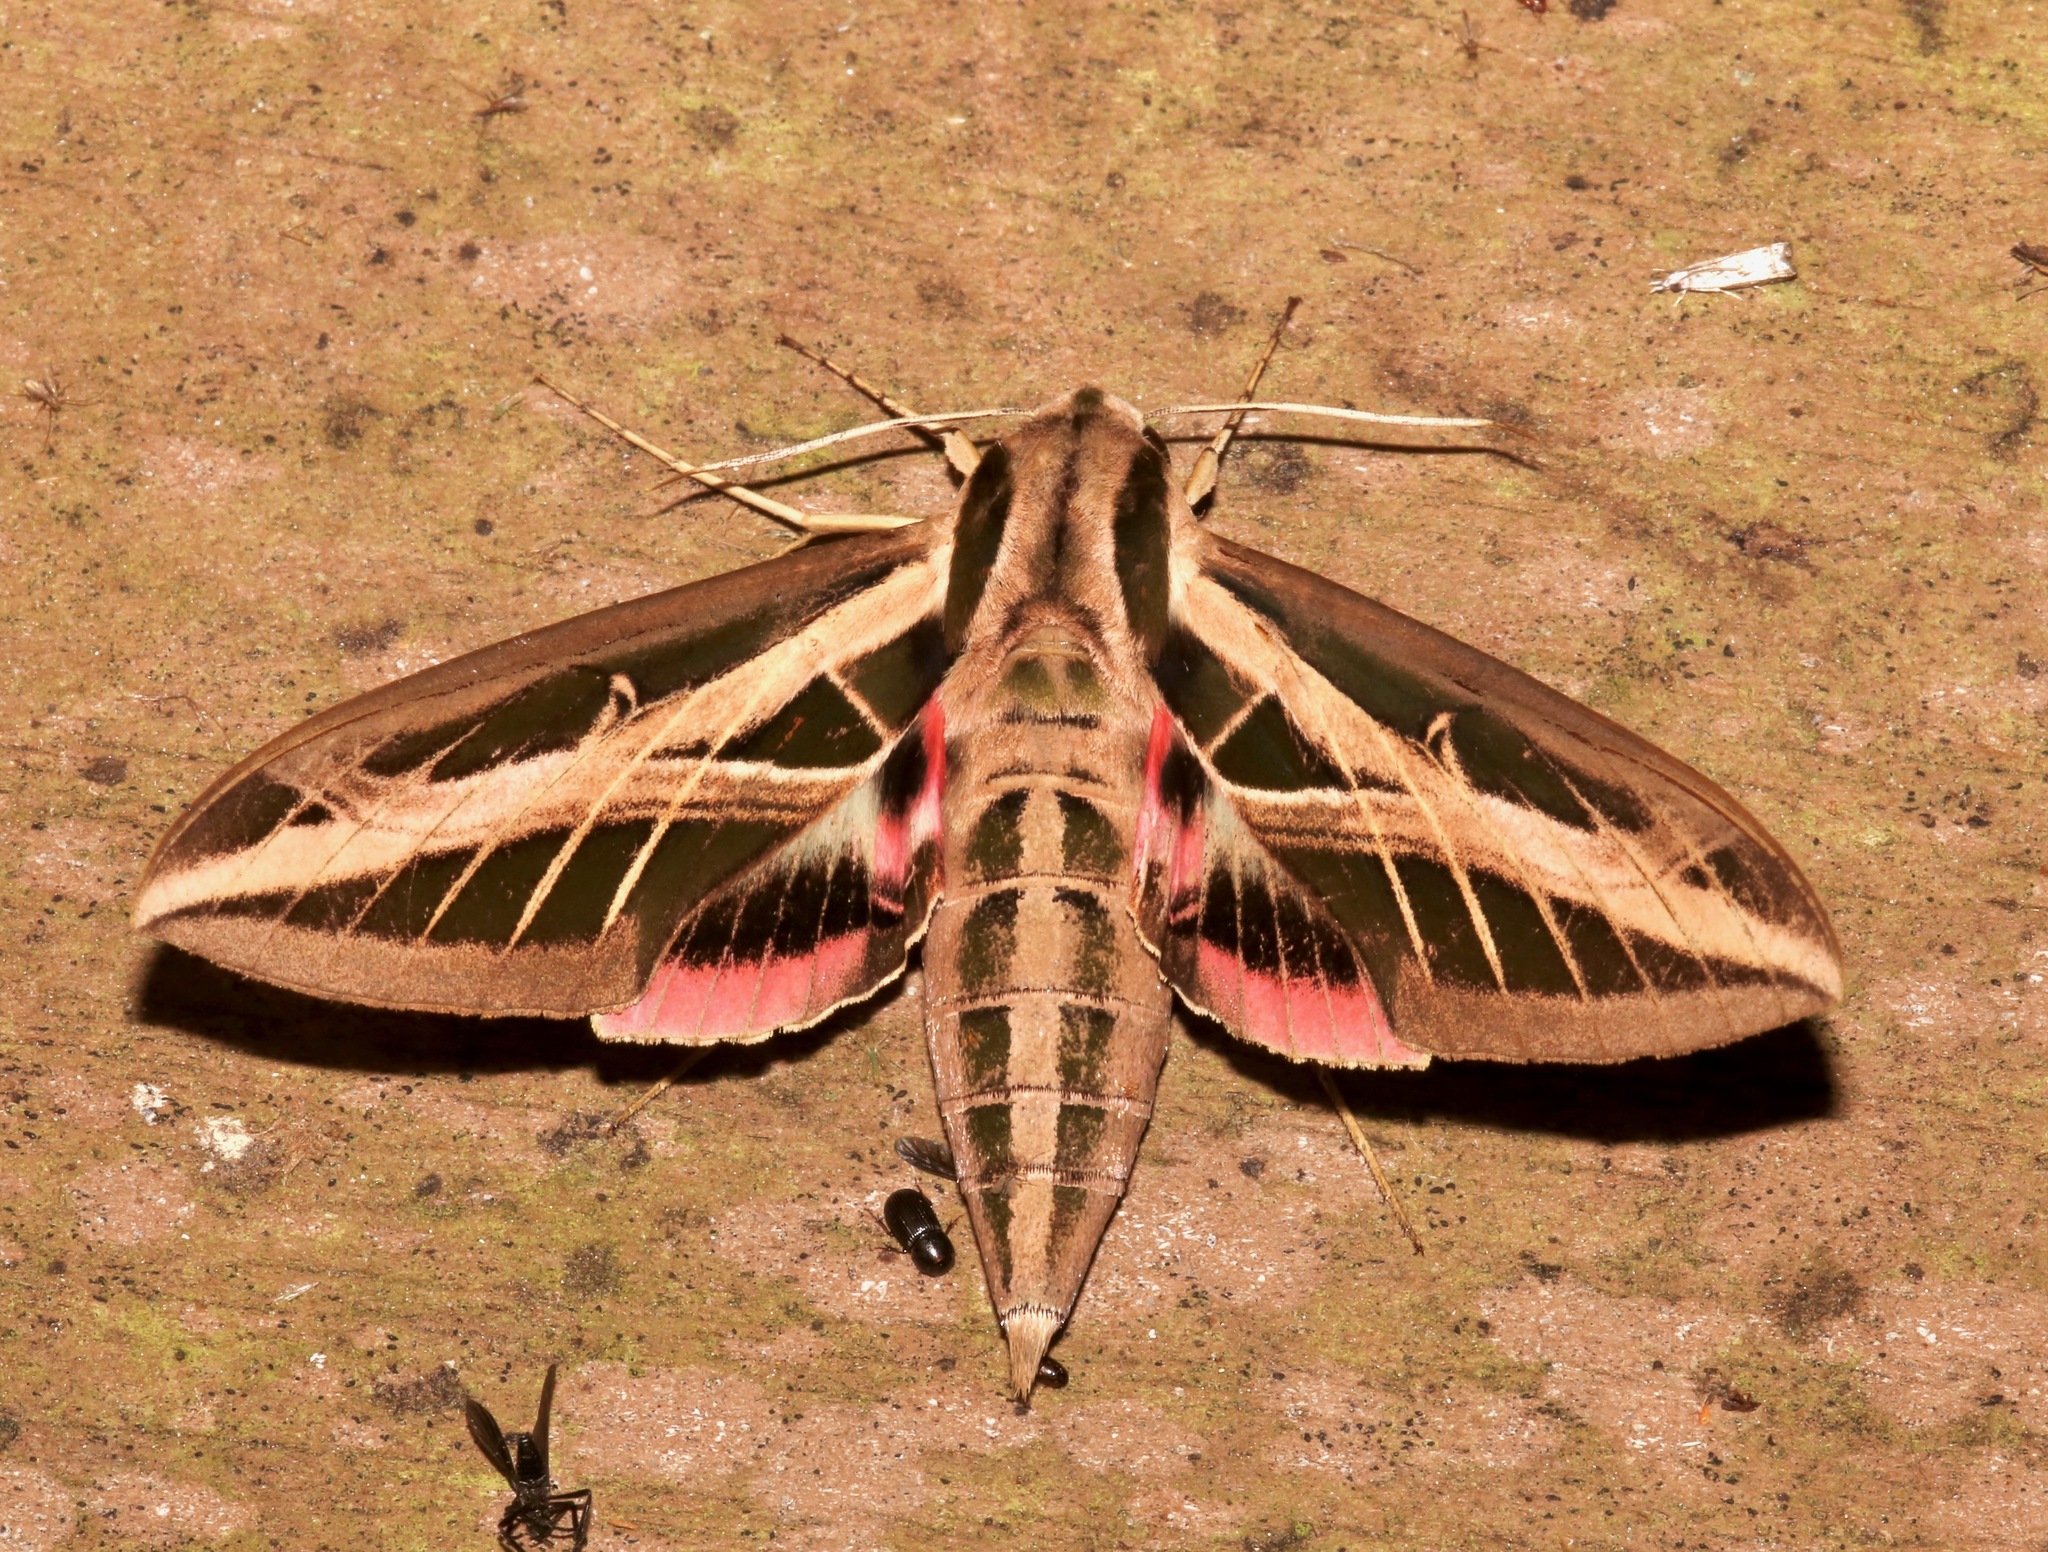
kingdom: Animalia
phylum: Arthropoda
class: Insecta
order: Lepidoptera
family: Sphingidae
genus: Eumorpha
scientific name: Eumorpha fasciatus
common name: Banded sphinx
